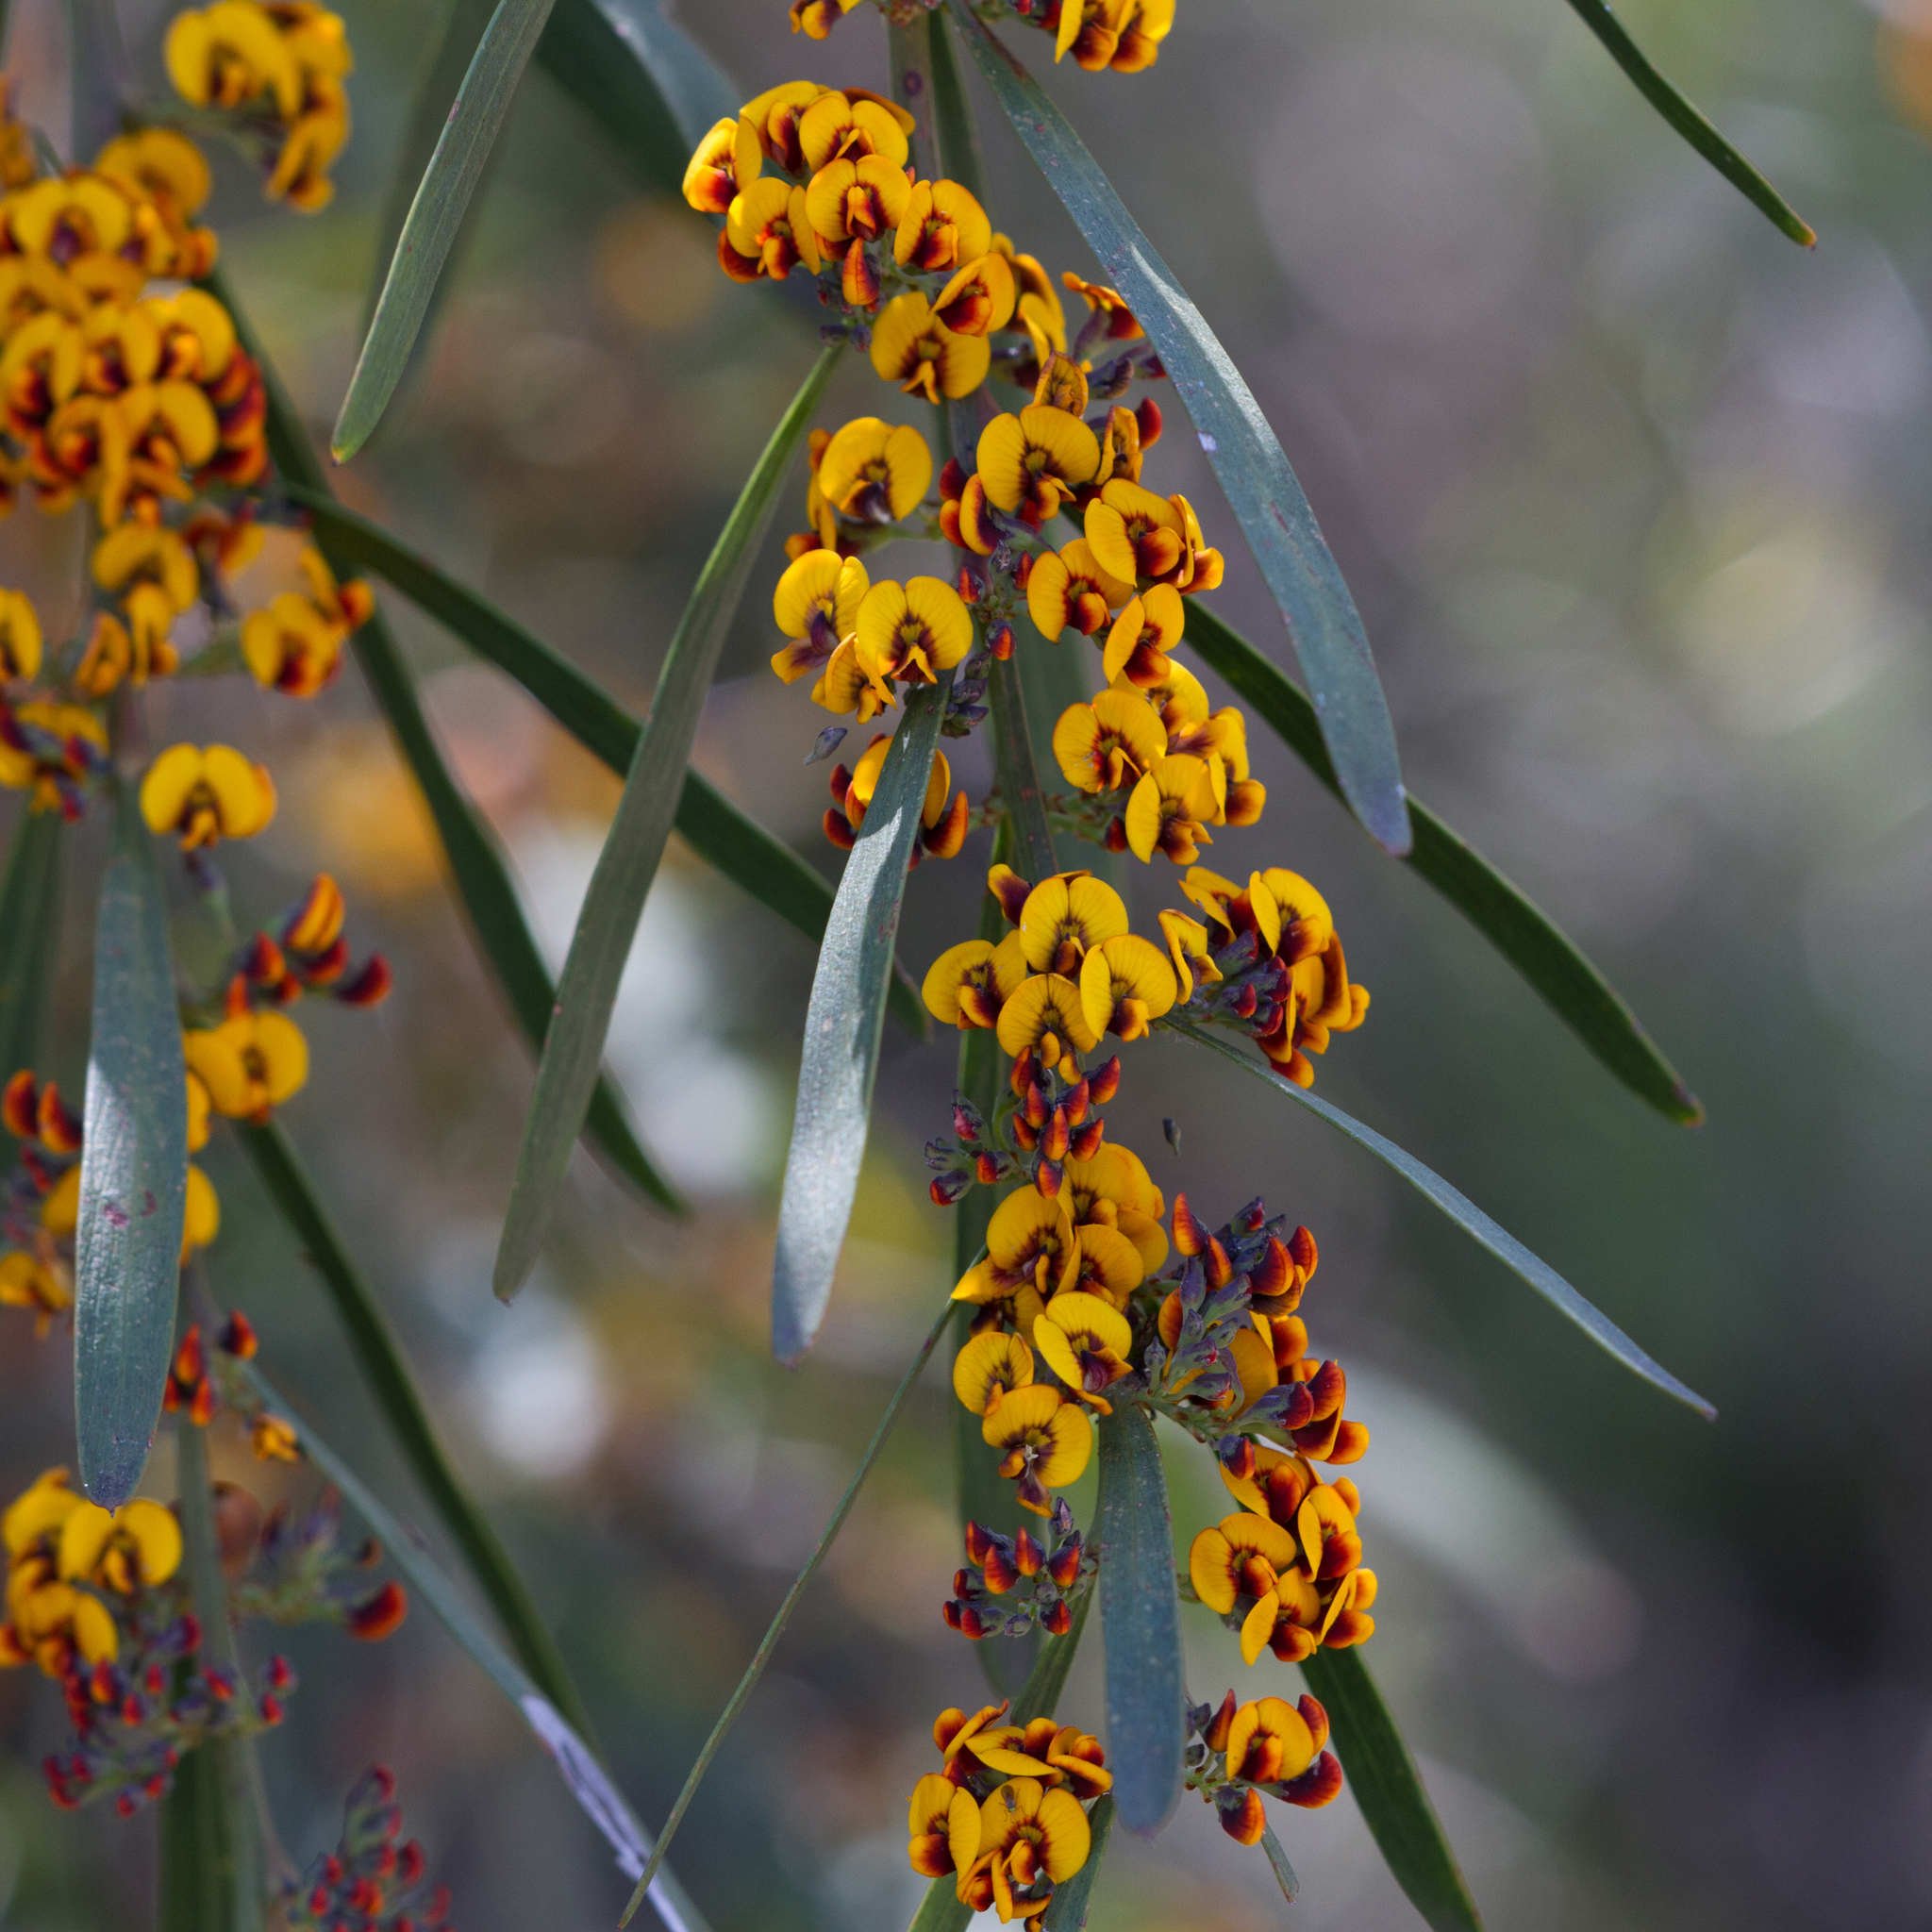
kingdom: Plantae
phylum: Tracheophyta
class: Magnoliopsida
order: Fabales
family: Fabaceae
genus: Daviesia
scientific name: Daviesia leptophylla
